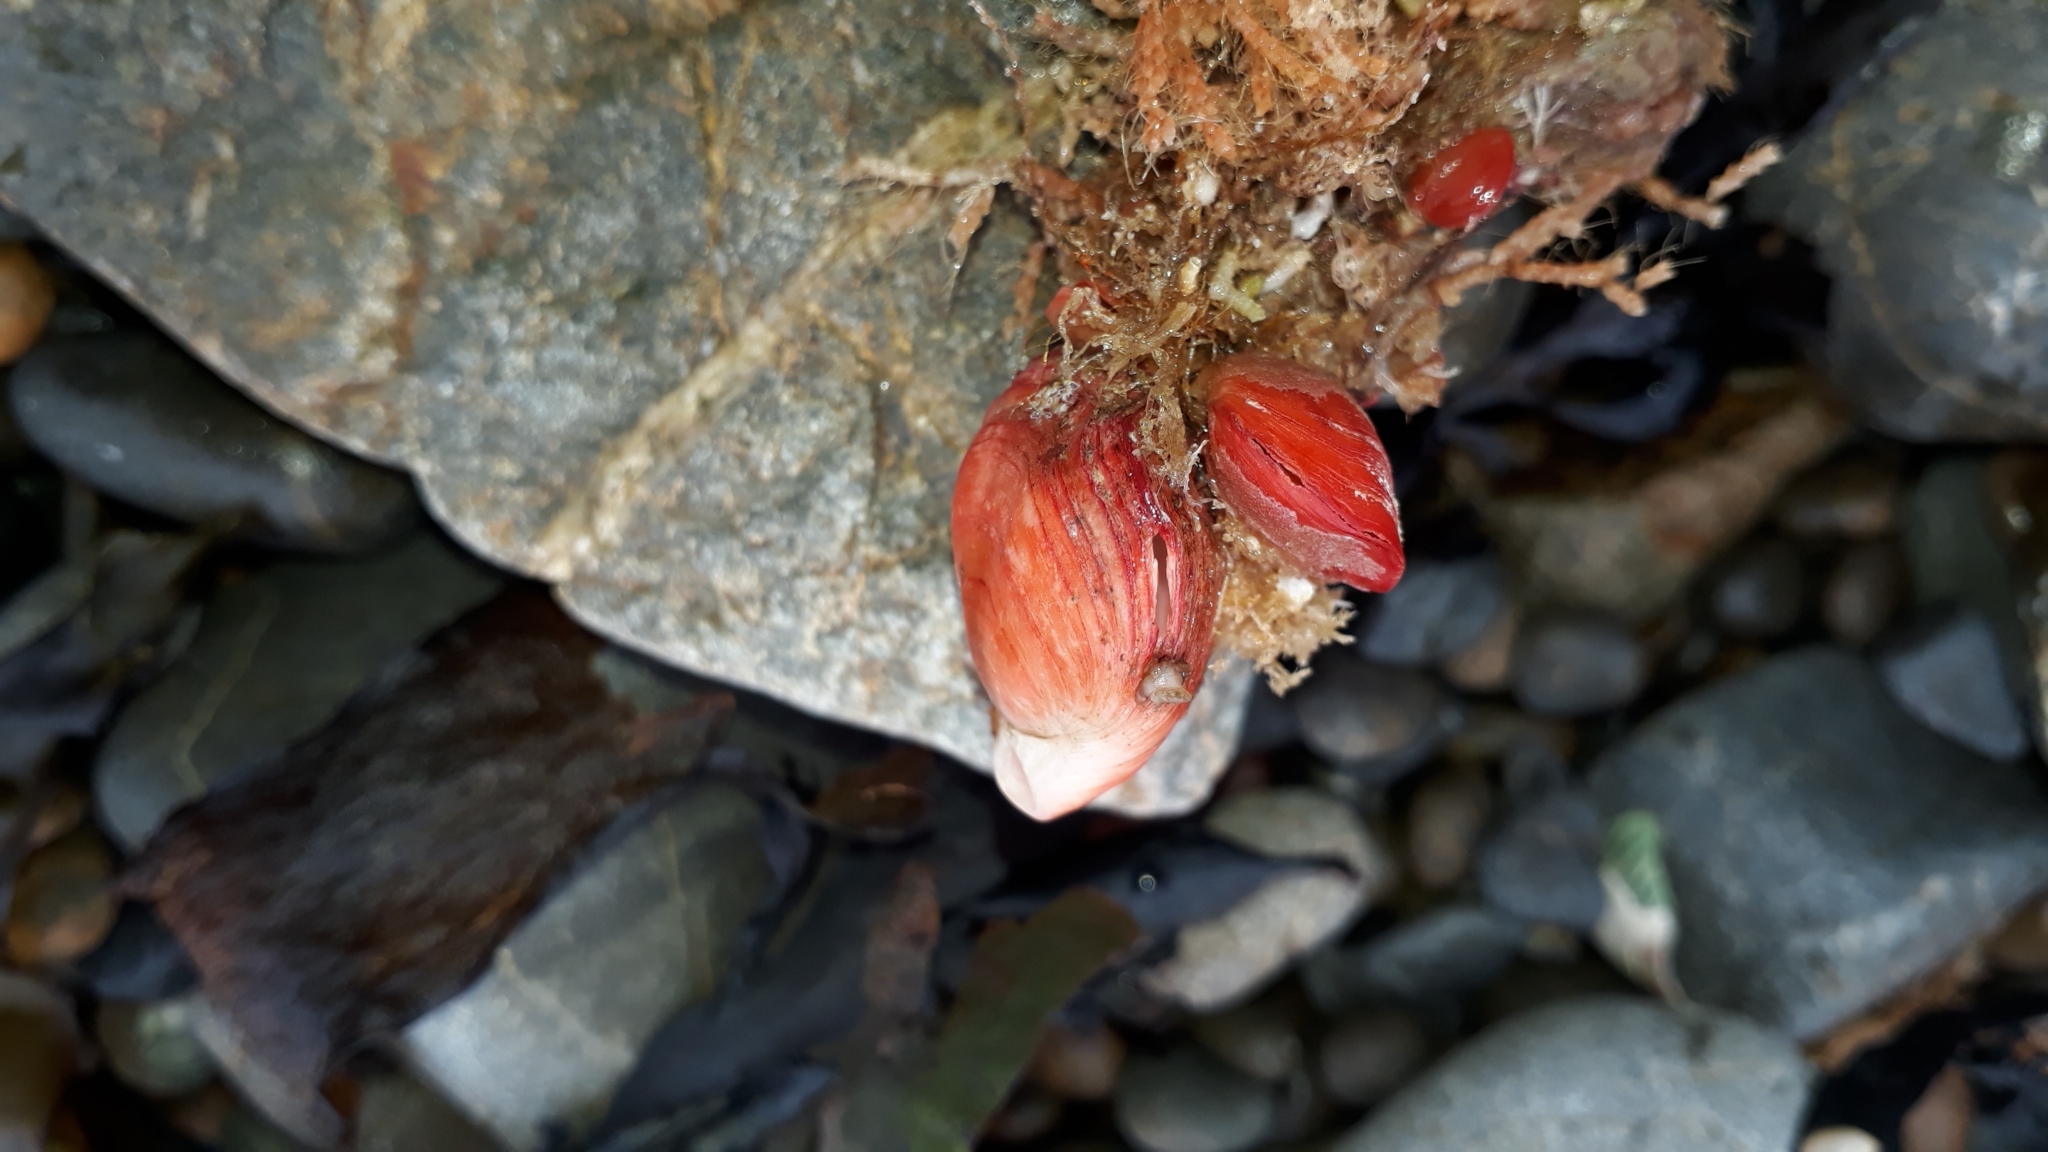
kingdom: Animalia
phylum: Brachiopoda
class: Rhynchonellata
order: Terebratulida
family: Terebratellidae
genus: Calloria
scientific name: Calloria inconspicua
